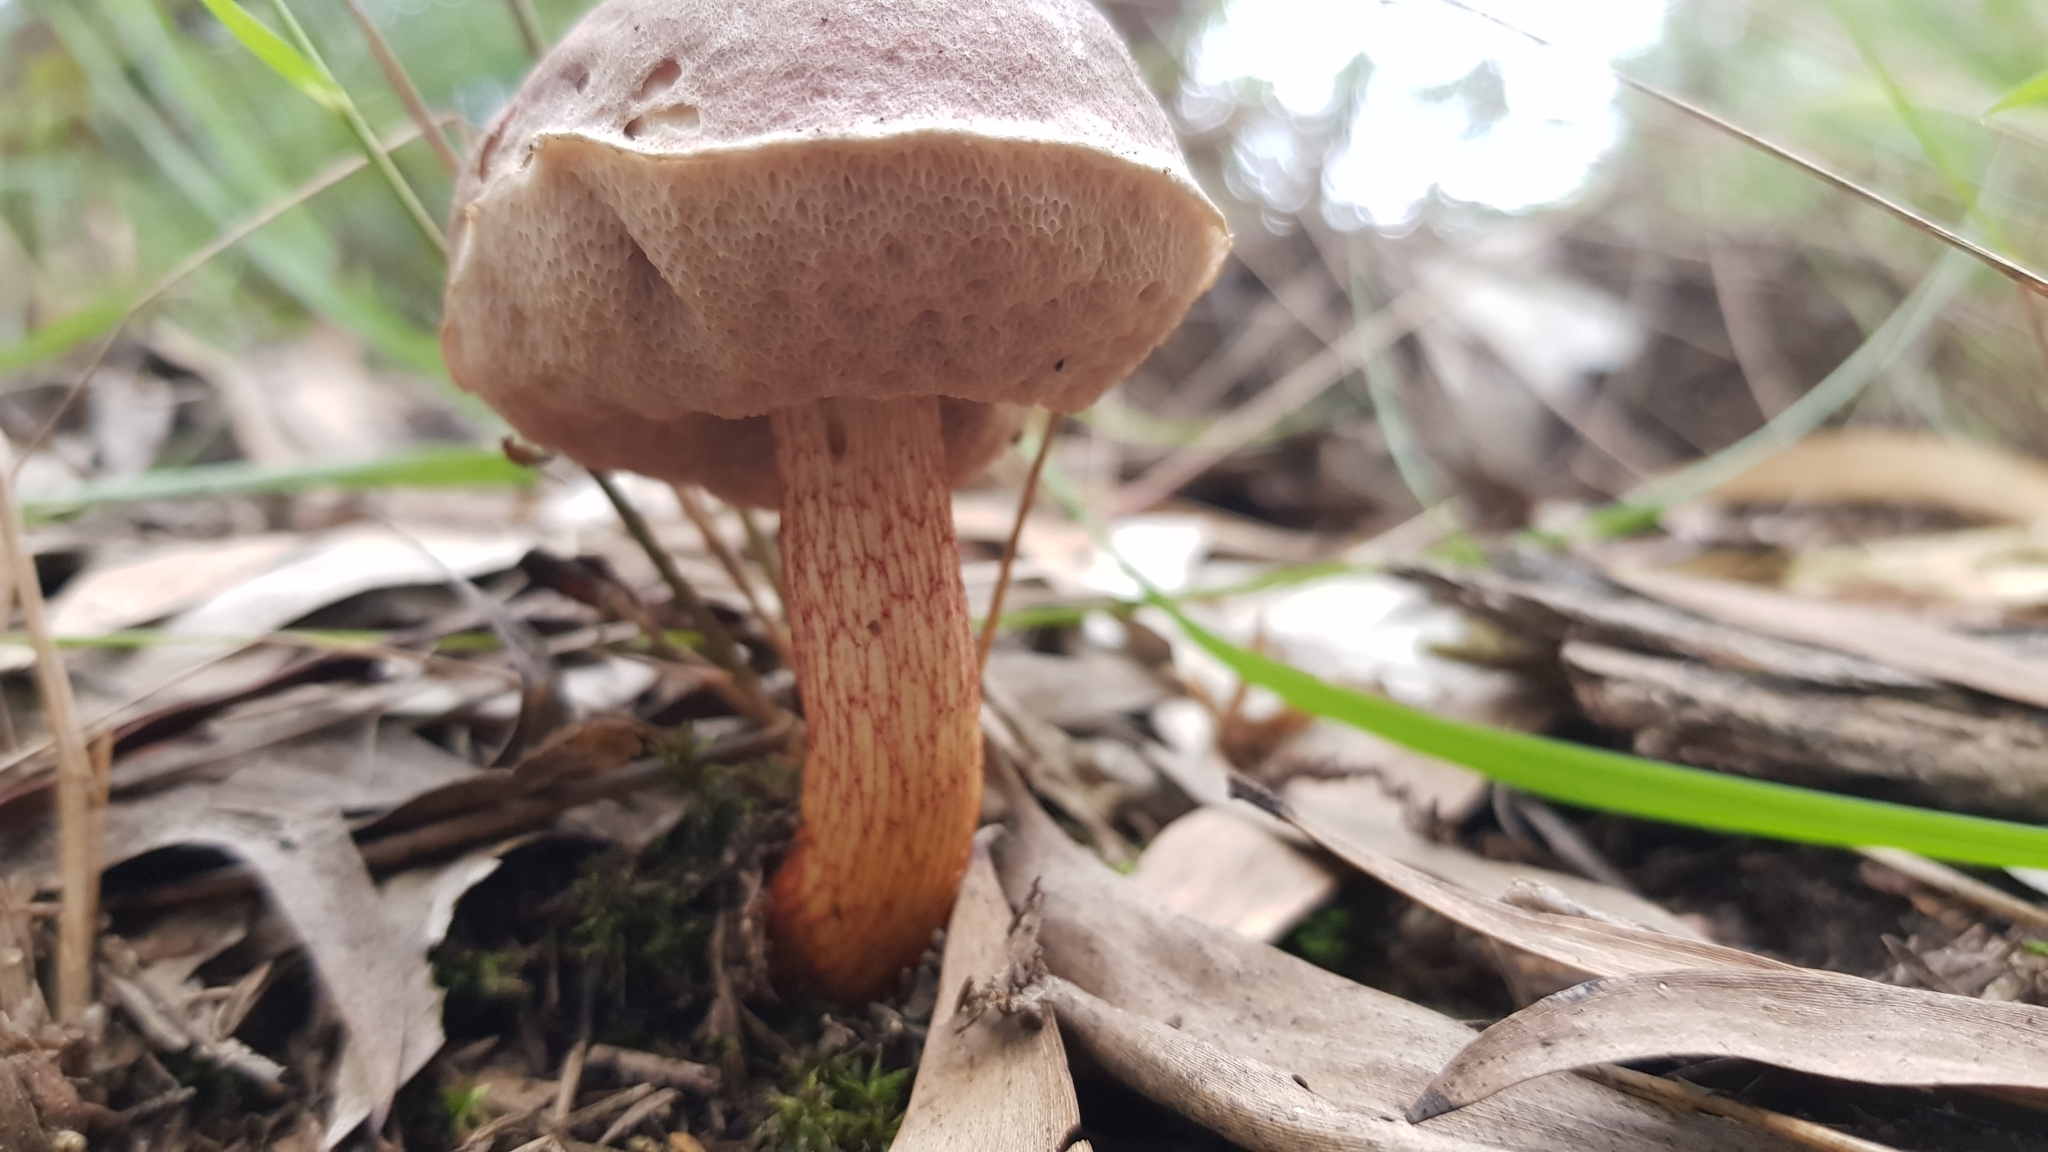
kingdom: Fungi
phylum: Basidiomycota
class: Agaricomycetes
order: Boletales
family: Boletaceae
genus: Royoungia
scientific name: Royoungia palumana
